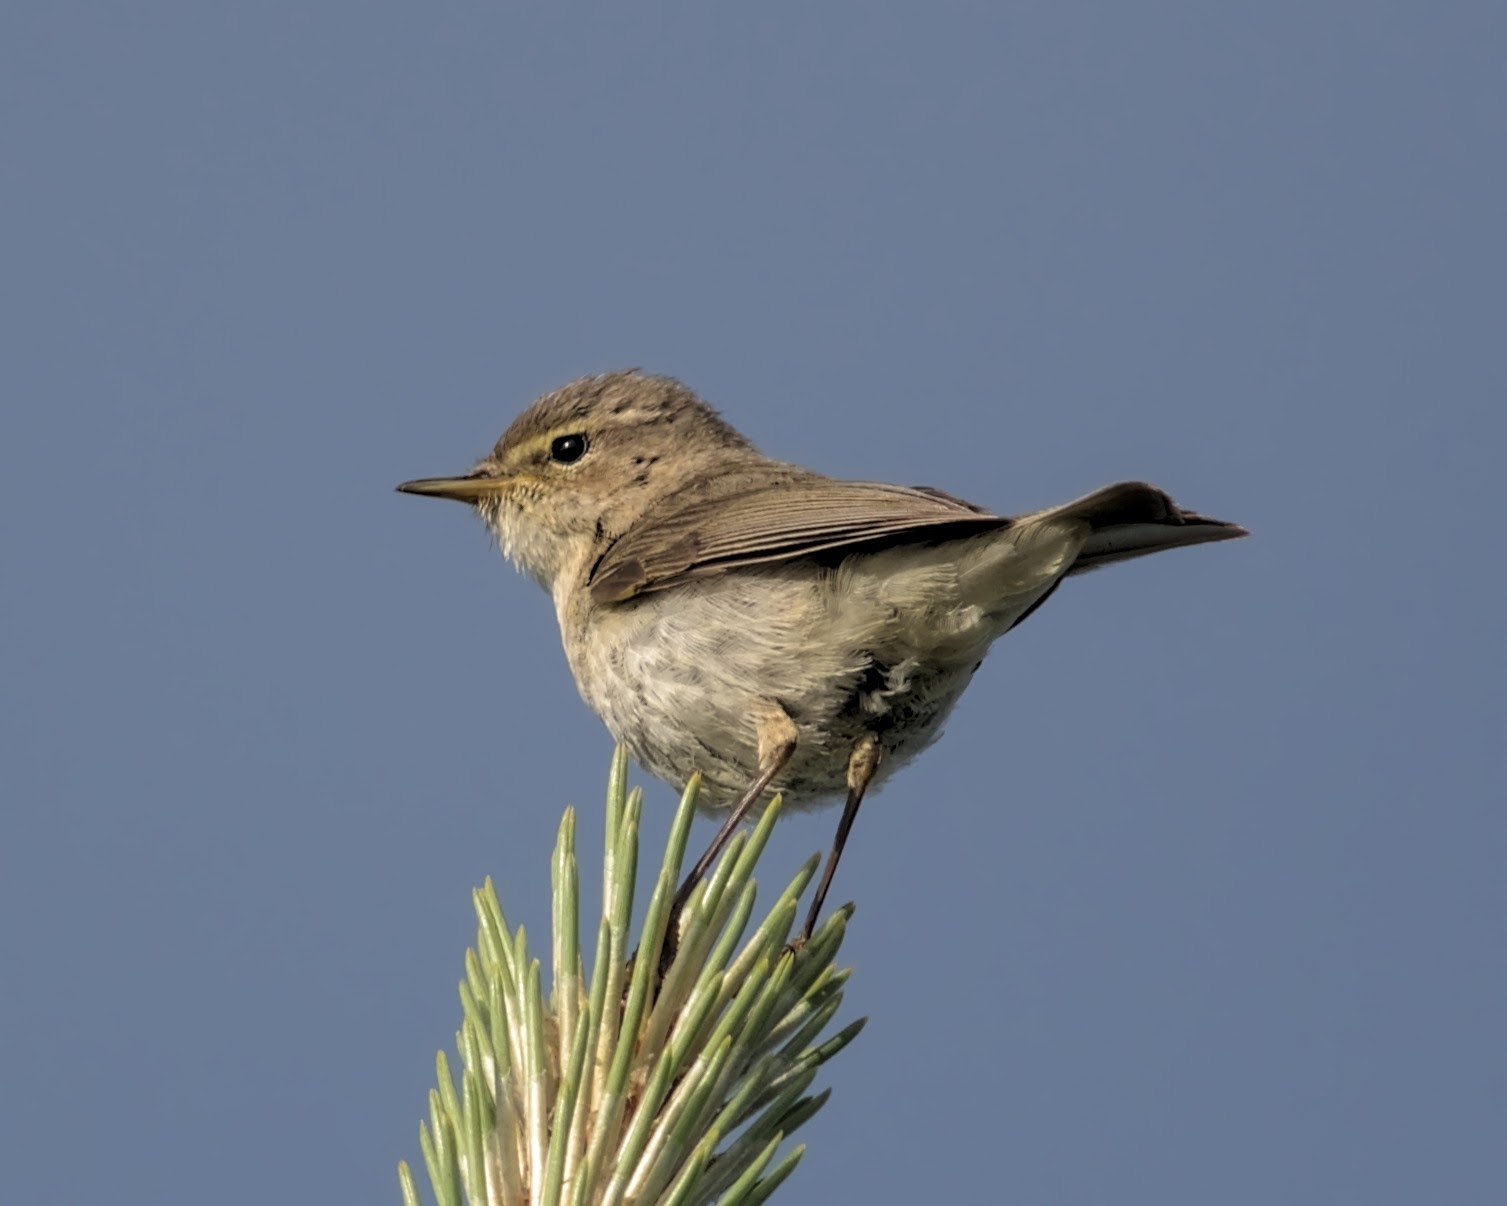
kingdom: Animalia
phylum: Chordata
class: Aves
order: Passeriformes
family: Phylloscopidae
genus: Phylloscopus
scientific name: Phylloscopus collybita
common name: Common chiffchaff
